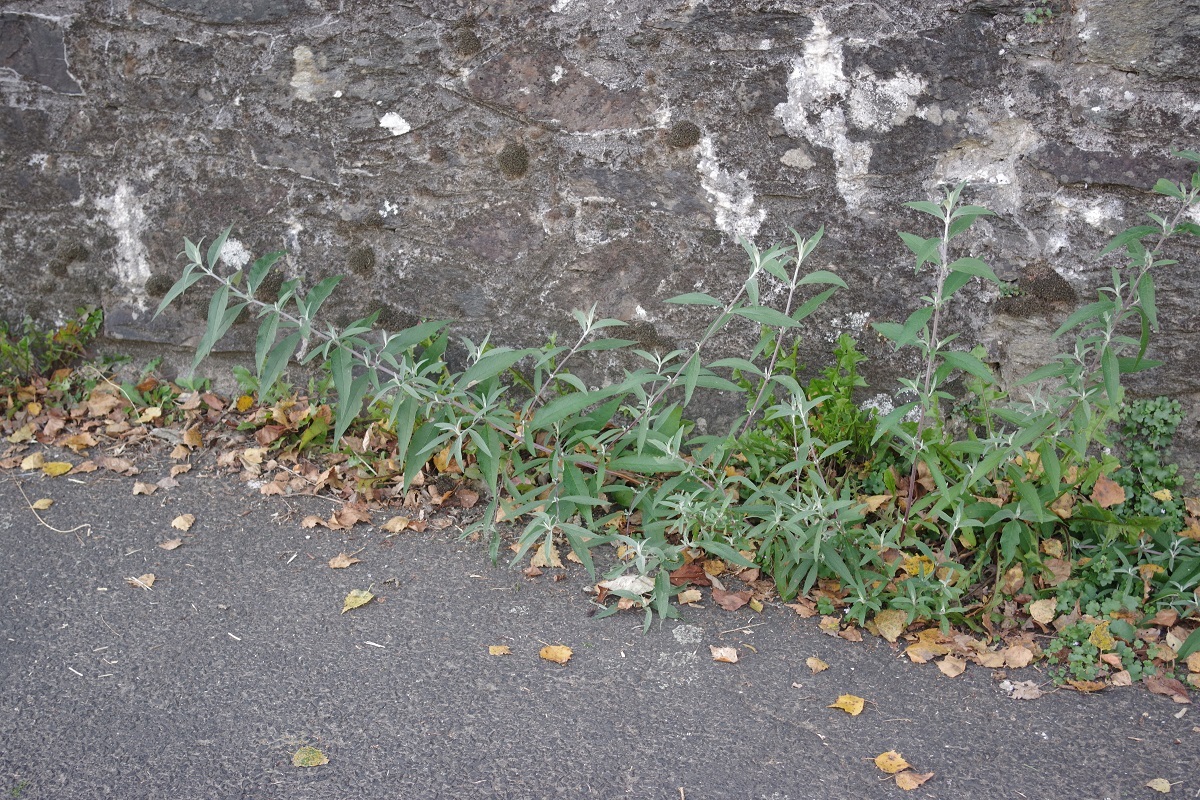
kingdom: Plantae
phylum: Tracheophyta
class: Magnoliopsida
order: Lamiales
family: Scrophulariaceae
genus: Buddleja
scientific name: Buddleja davidii
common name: Butterfly-bush
